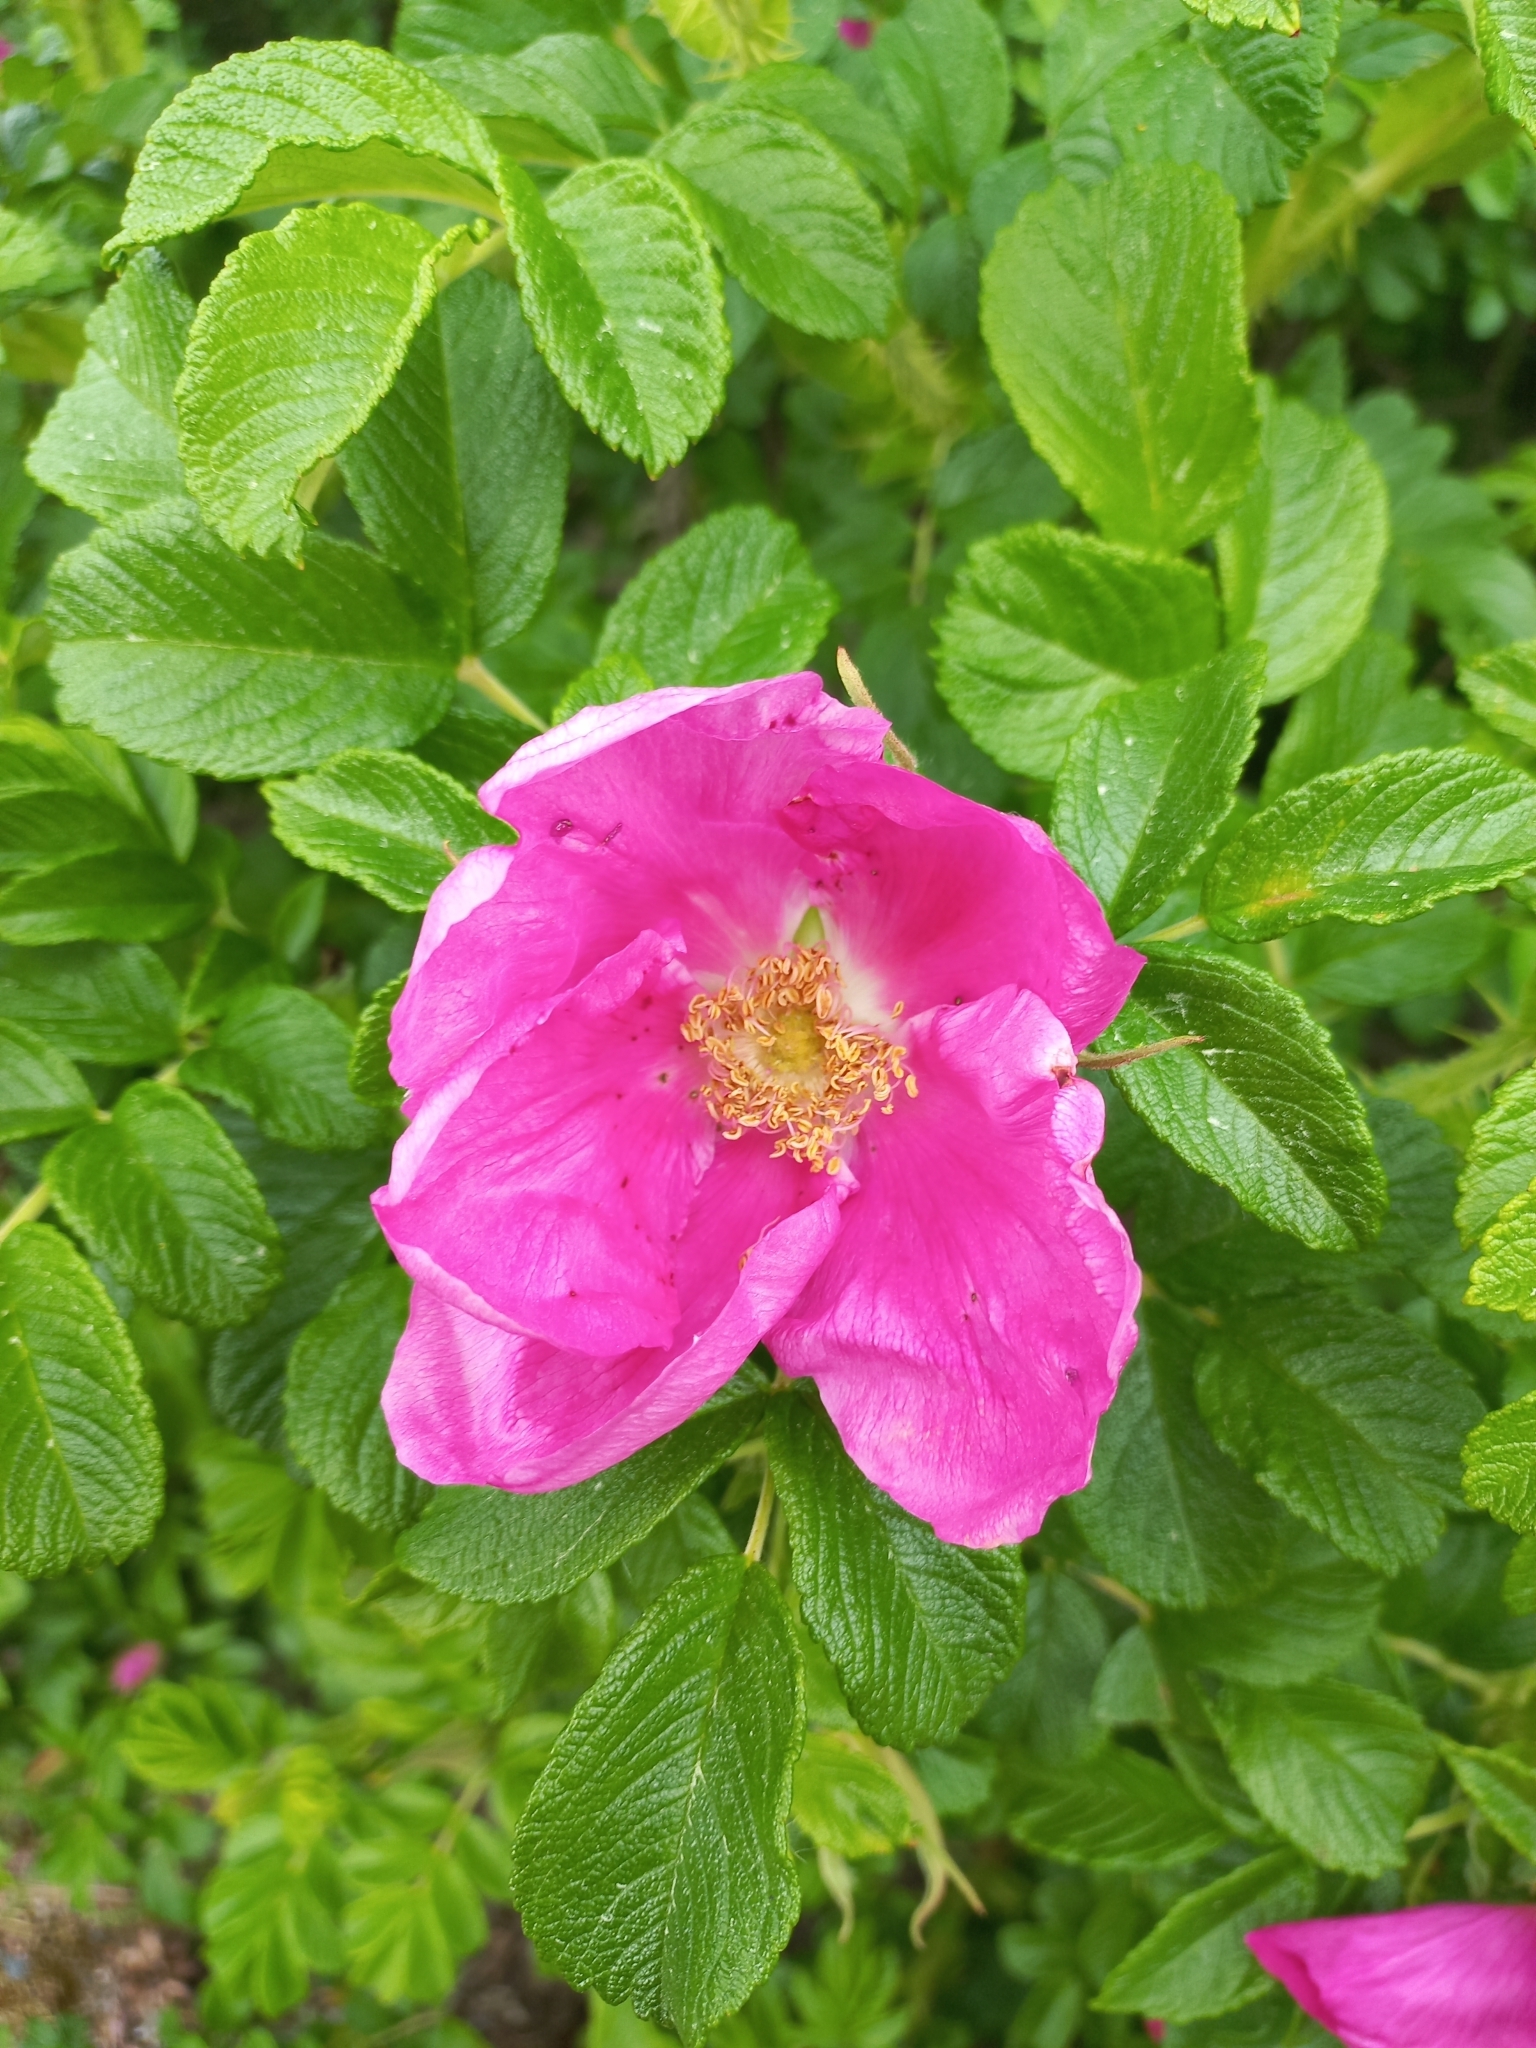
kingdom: Plantae
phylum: Tracheophyta
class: Magnoliopsida
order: Rosales
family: Rosaceae
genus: Rosa
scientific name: Rosa rugosa
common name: Japanese rose
